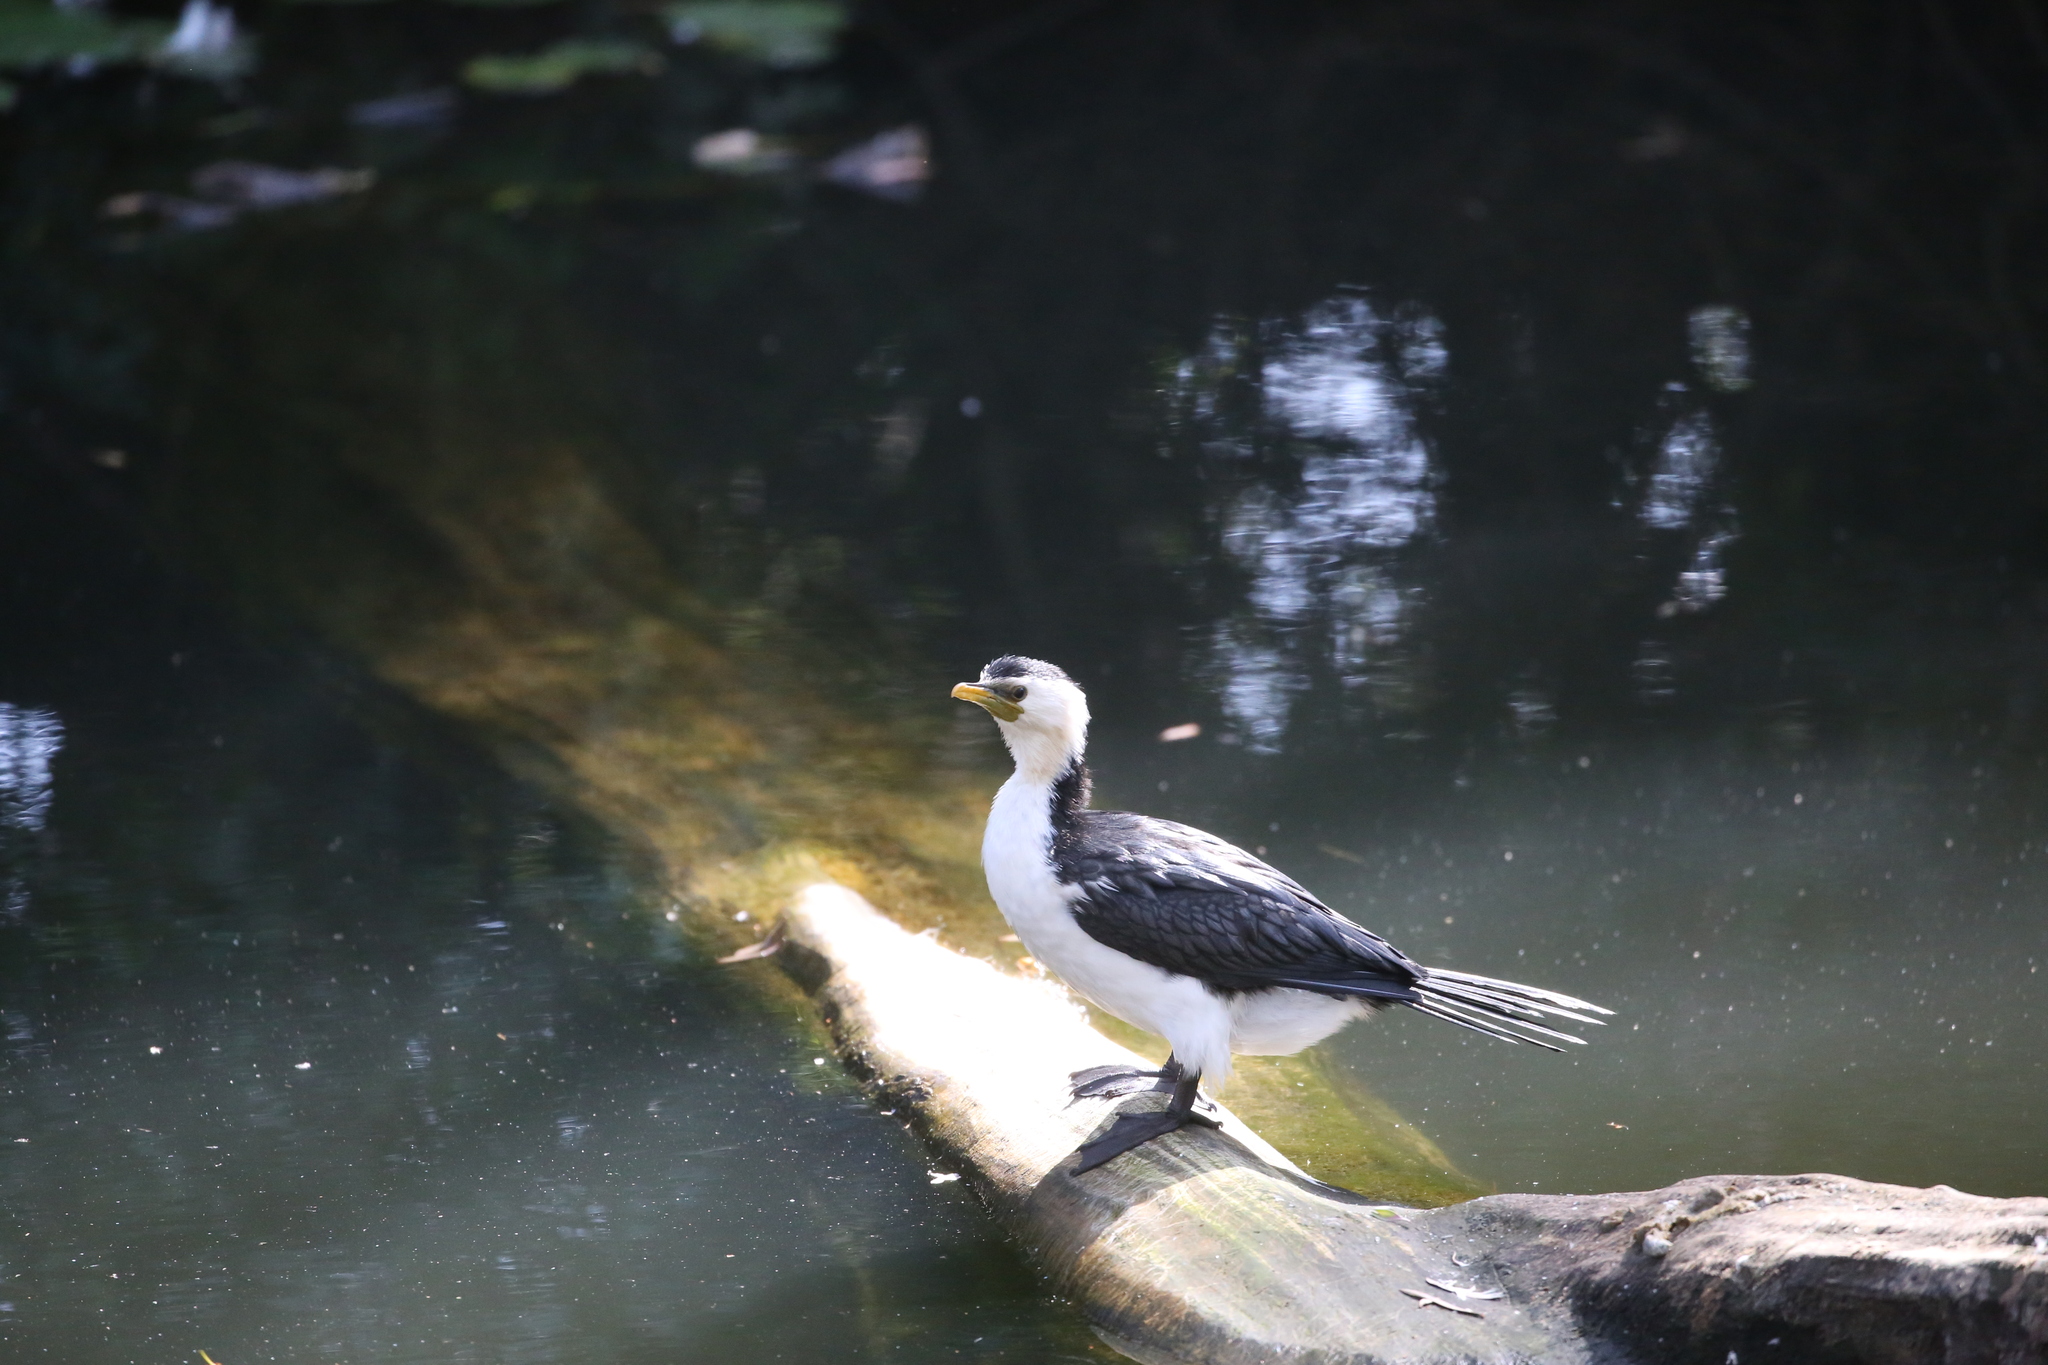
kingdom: Animalia
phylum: Chordata
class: Aves
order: Suliformes
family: Phalacrocoracidae
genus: Microcarbo
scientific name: Microcarbo melanoleucos
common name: Little pied cormorant
